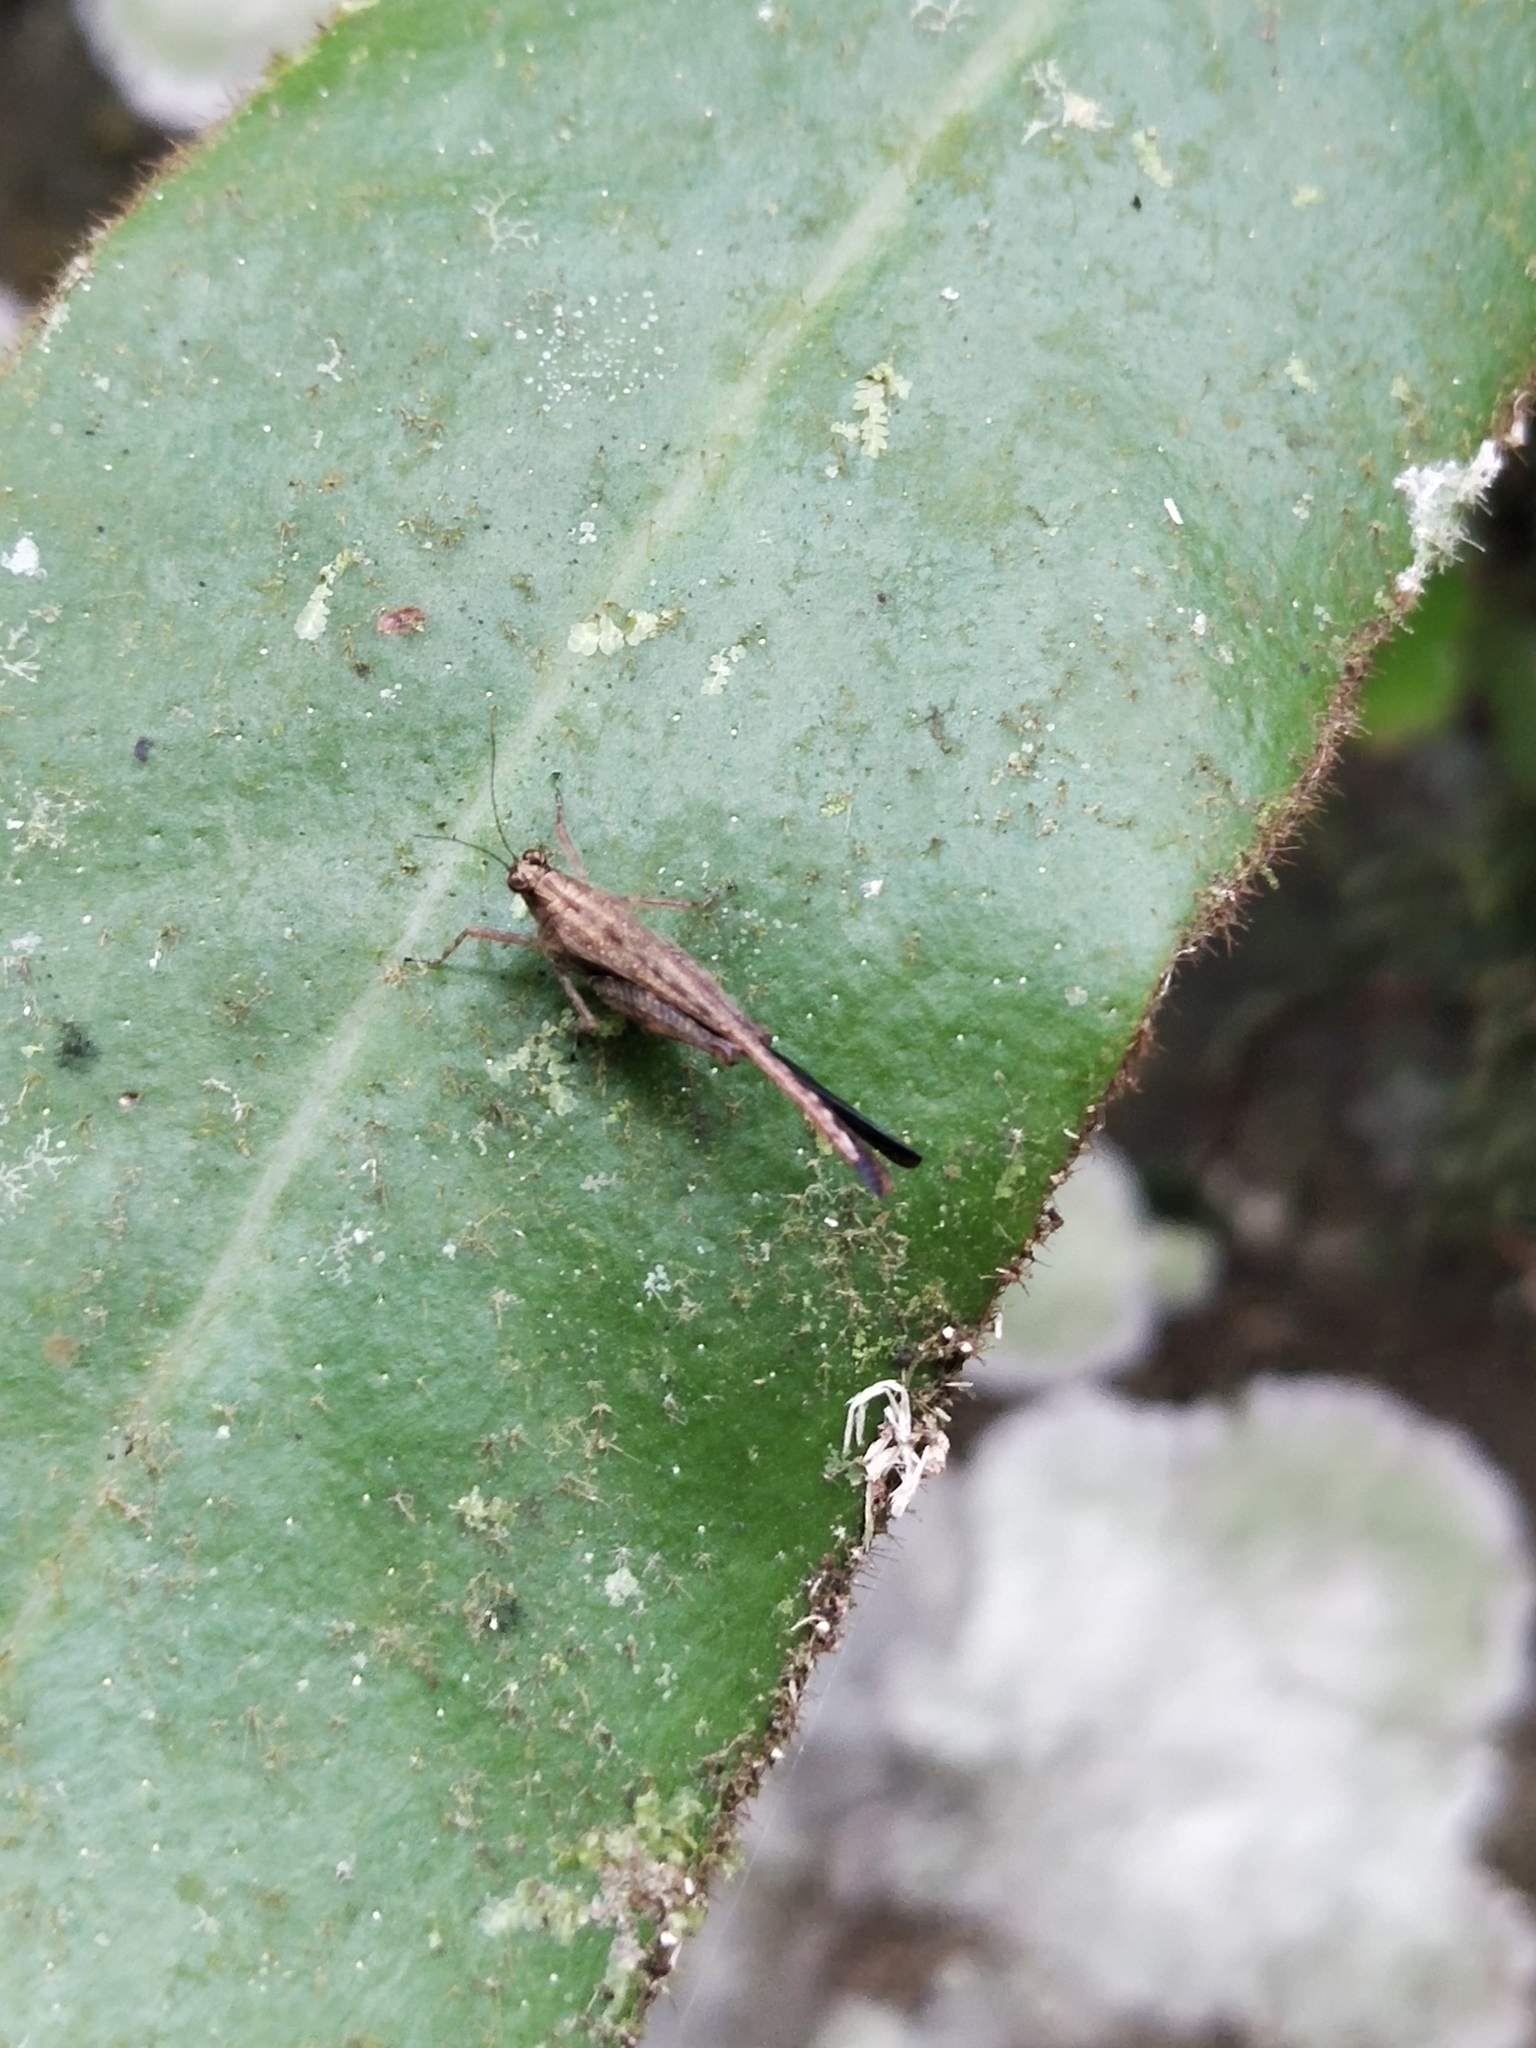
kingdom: Animalia
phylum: Arthropoda
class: Insecta
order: Orthoptera
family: Tetrigidae
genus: Probolotettix
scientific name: Probolotettix languidus
